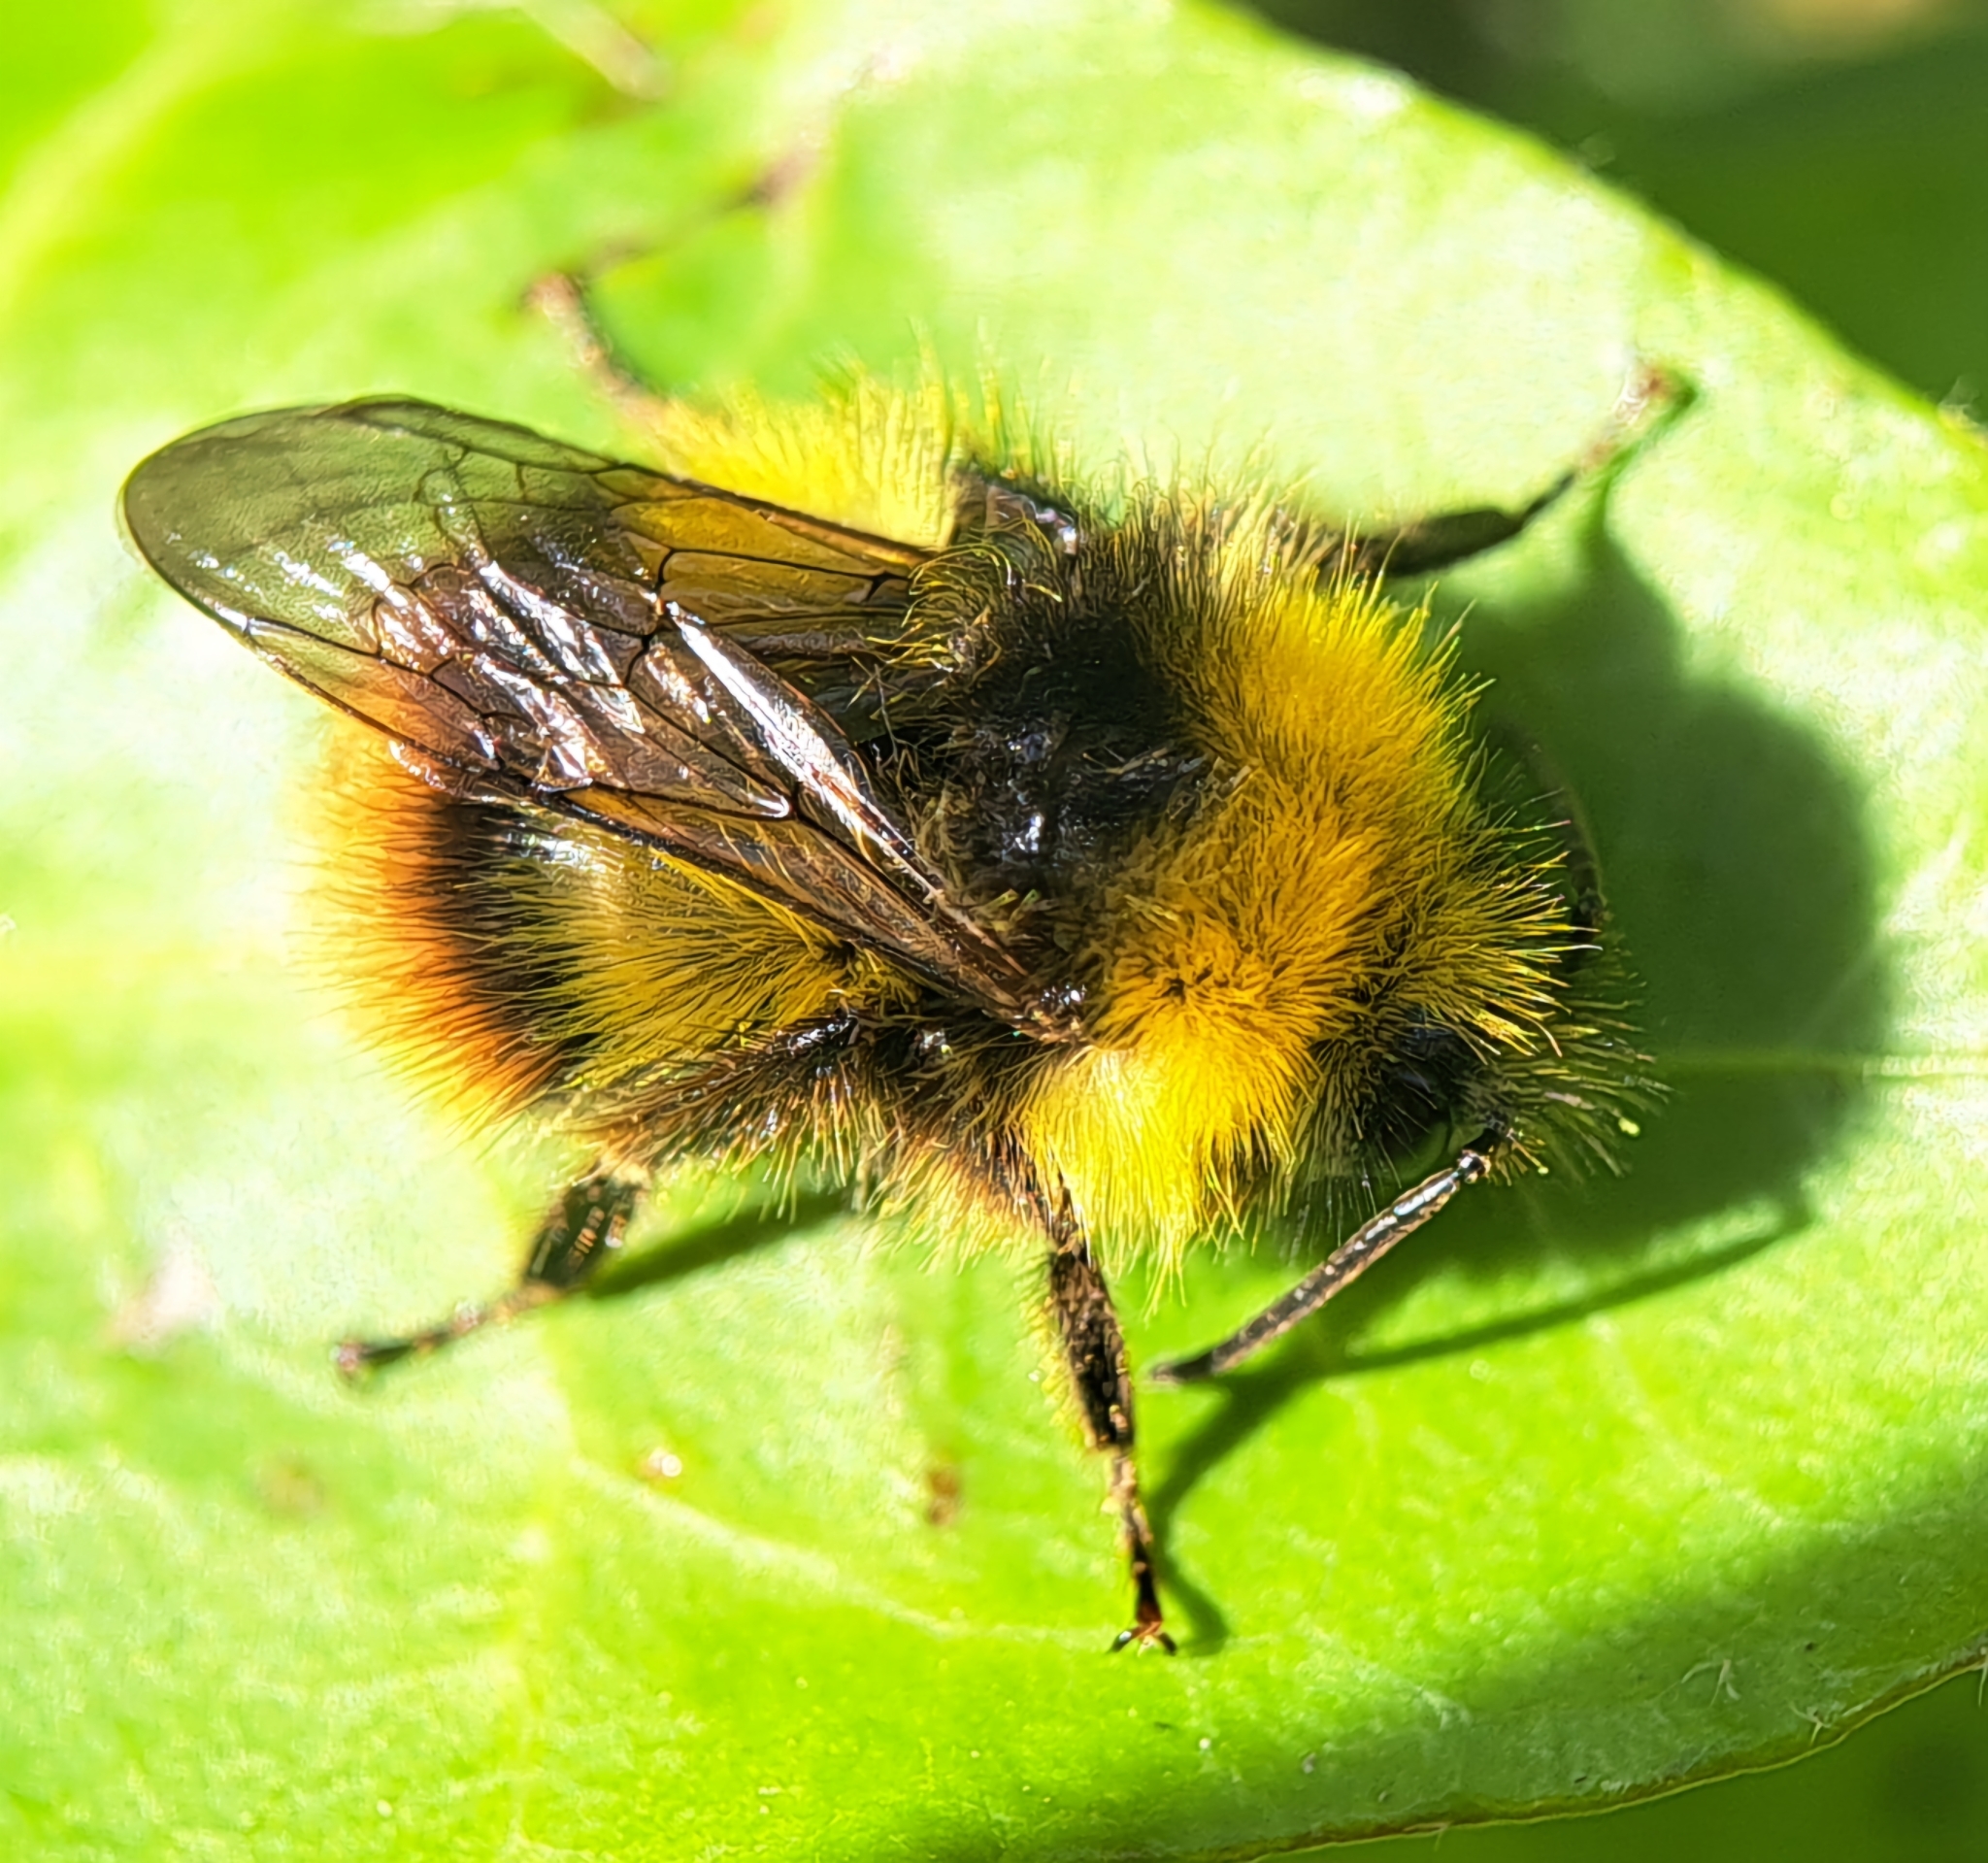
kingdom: Animalia
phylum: Arthropoda
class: Insecta
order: Hymenoptera
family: Apidae
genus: Bombus
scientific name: Bombus pratorum
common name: Early humble-bee
